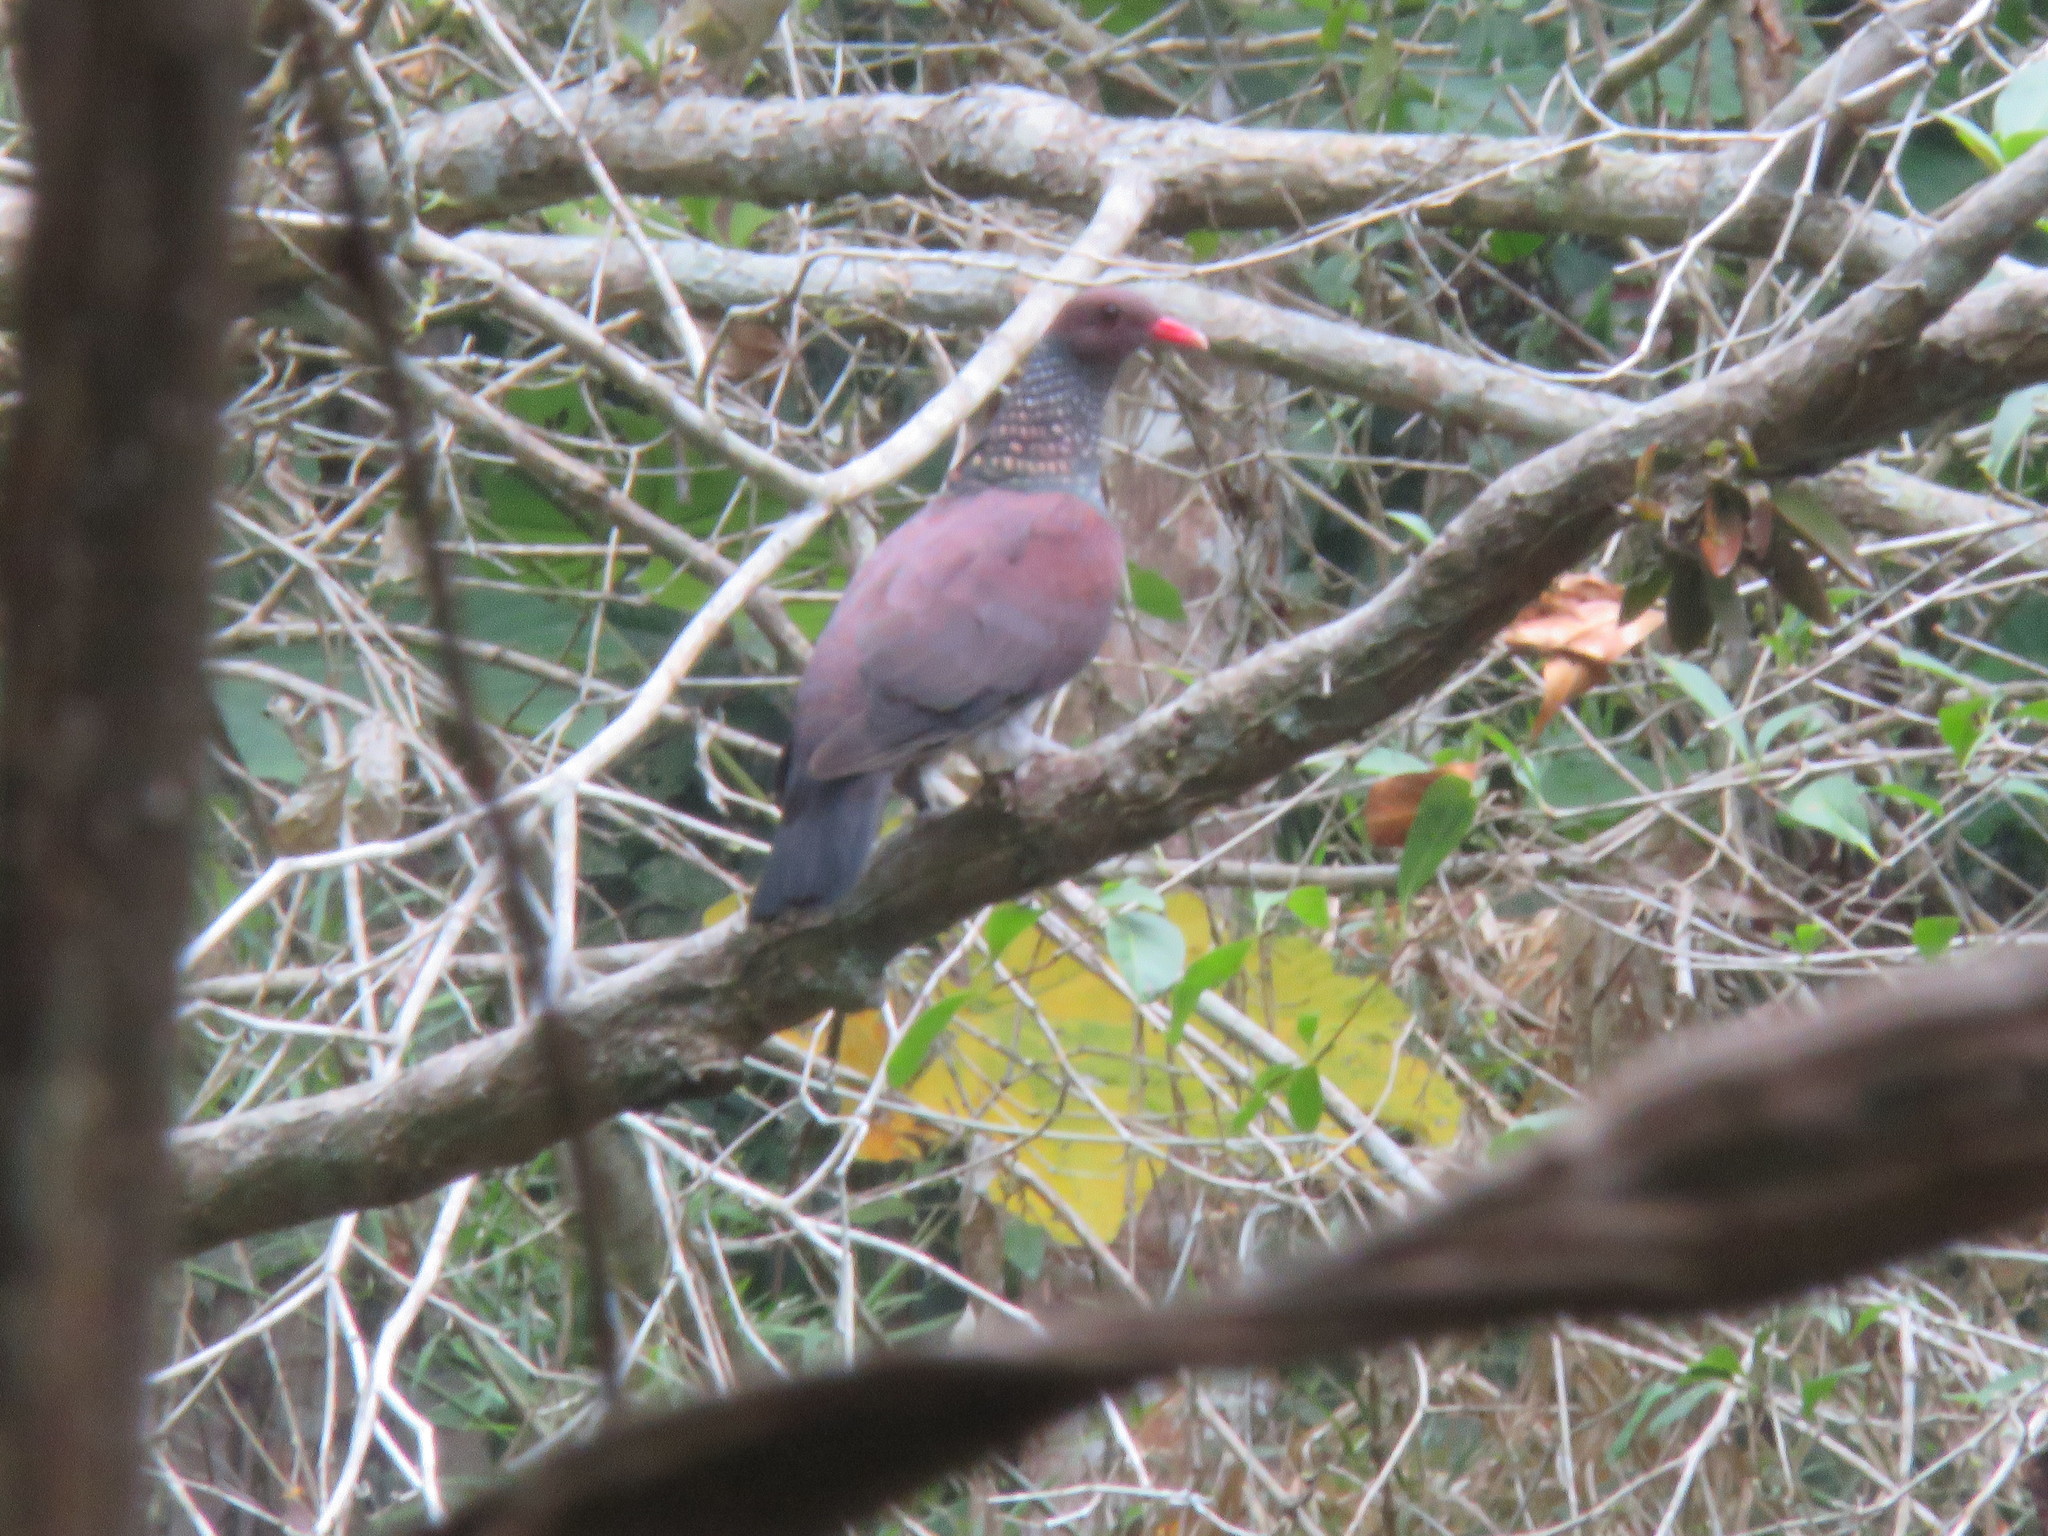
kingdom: Animalia
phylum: Chordata
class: Aves
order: Columbiformes
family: Columbidae
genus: Patagioenas
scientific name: Patagioenas speciosa
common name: Scaled pigeon
